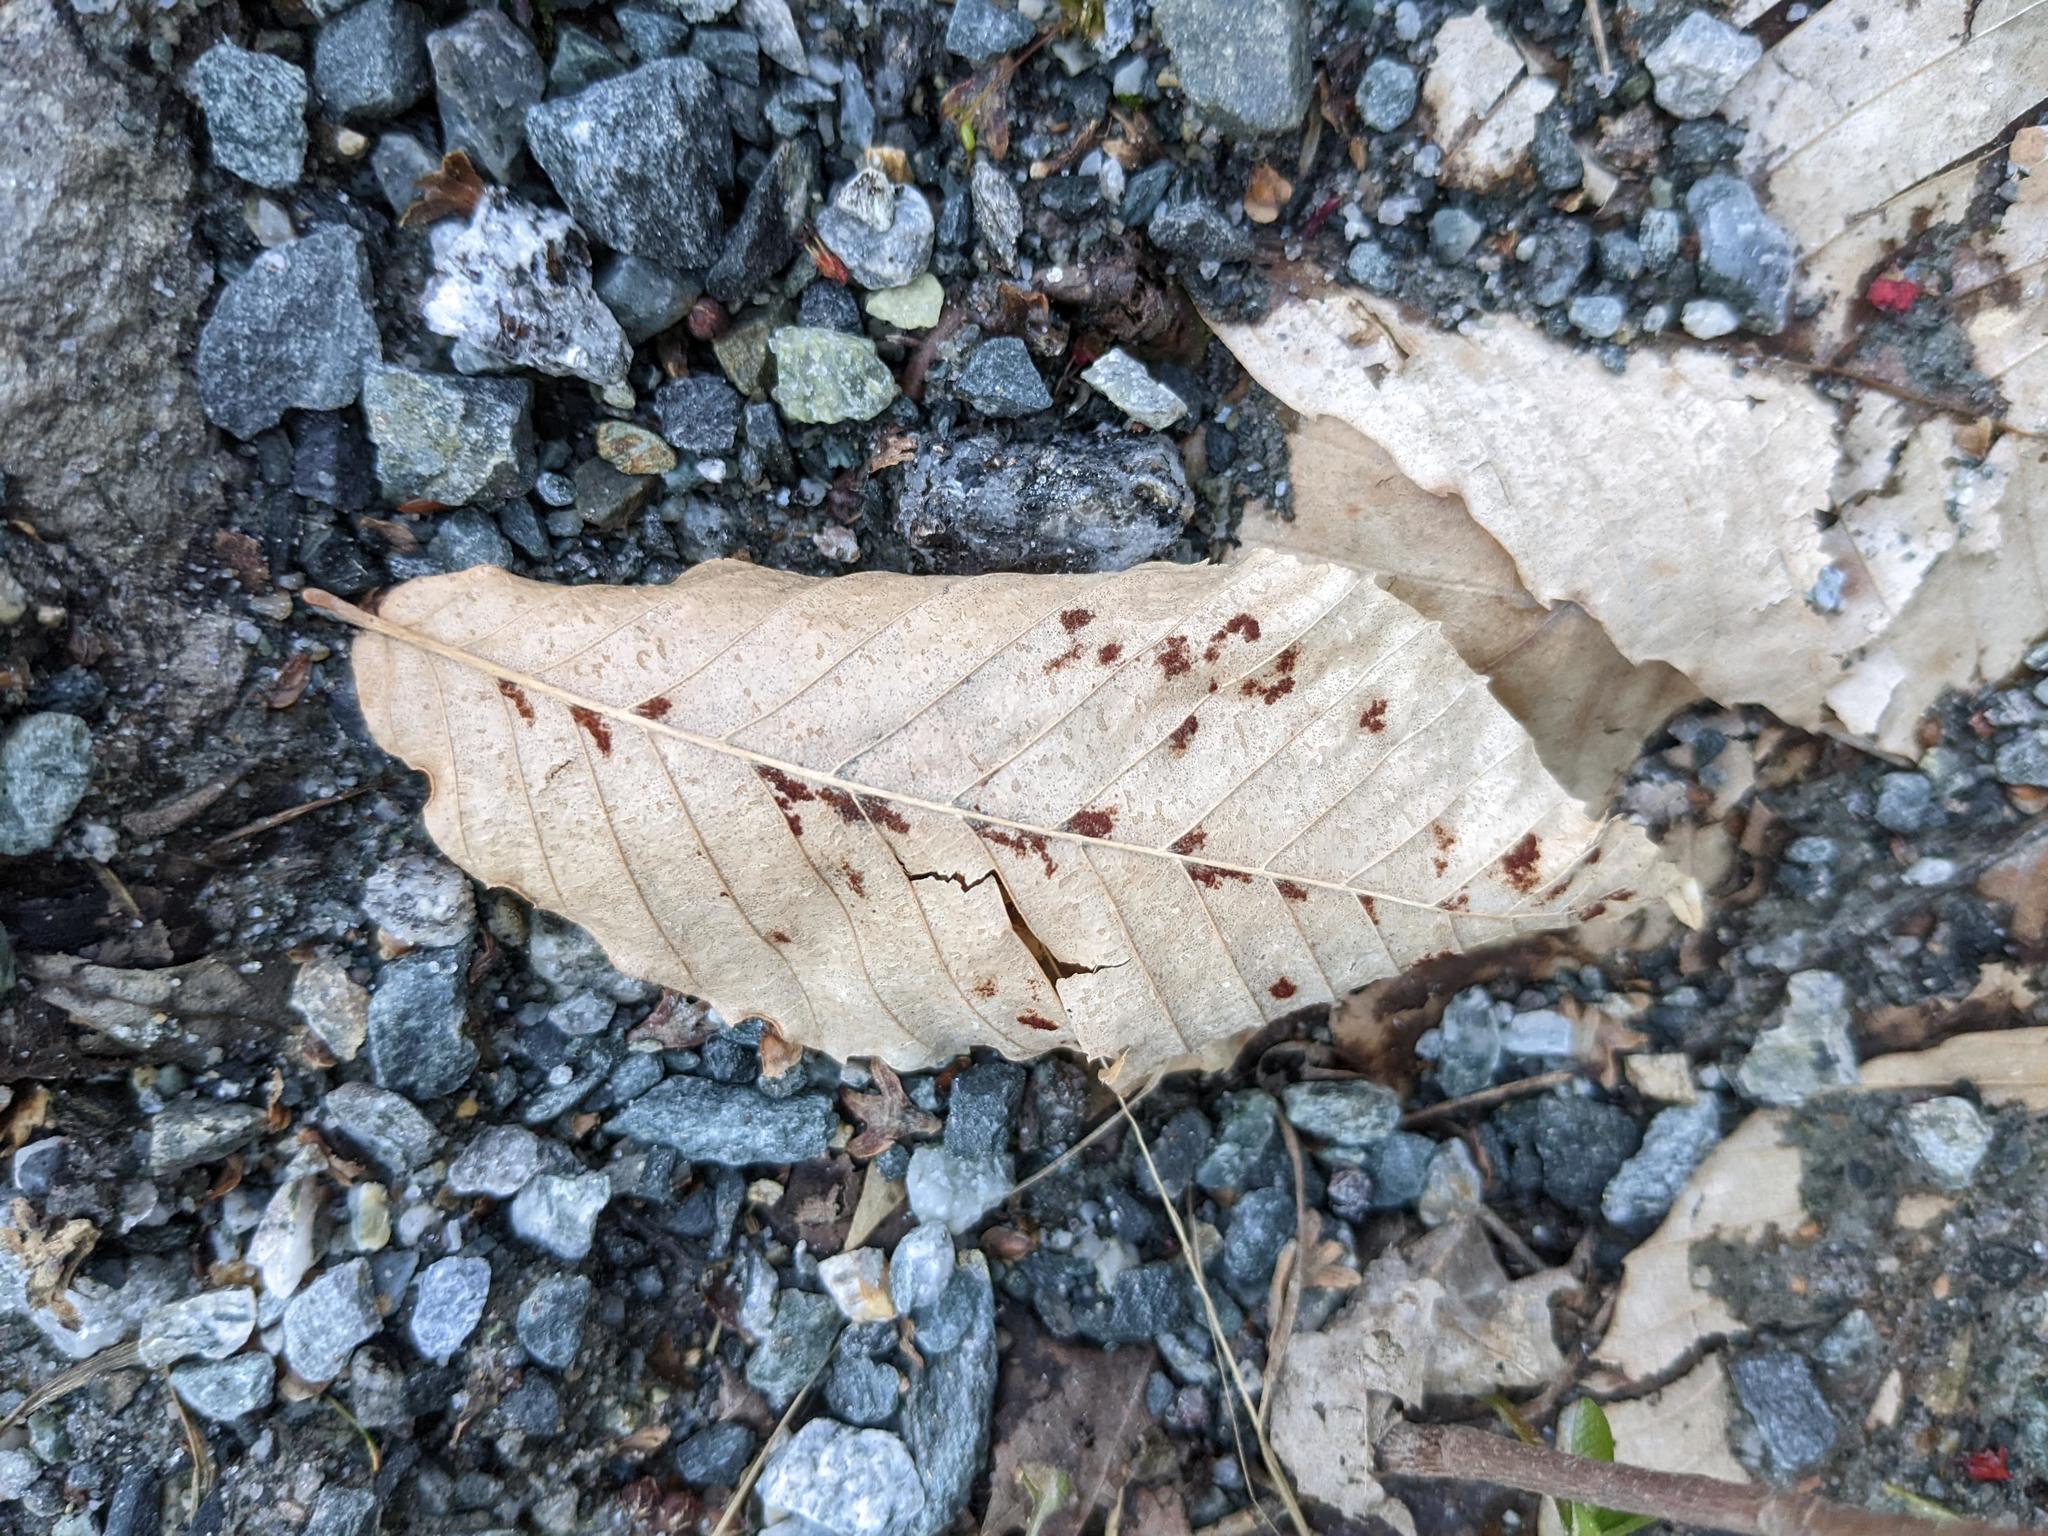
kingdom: Plantae
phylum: Tracheophyta
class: Magnoliopsida
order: Fagales
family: Fagaceae
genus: Fagus
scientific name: Fagus grandifolia
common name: American beech
